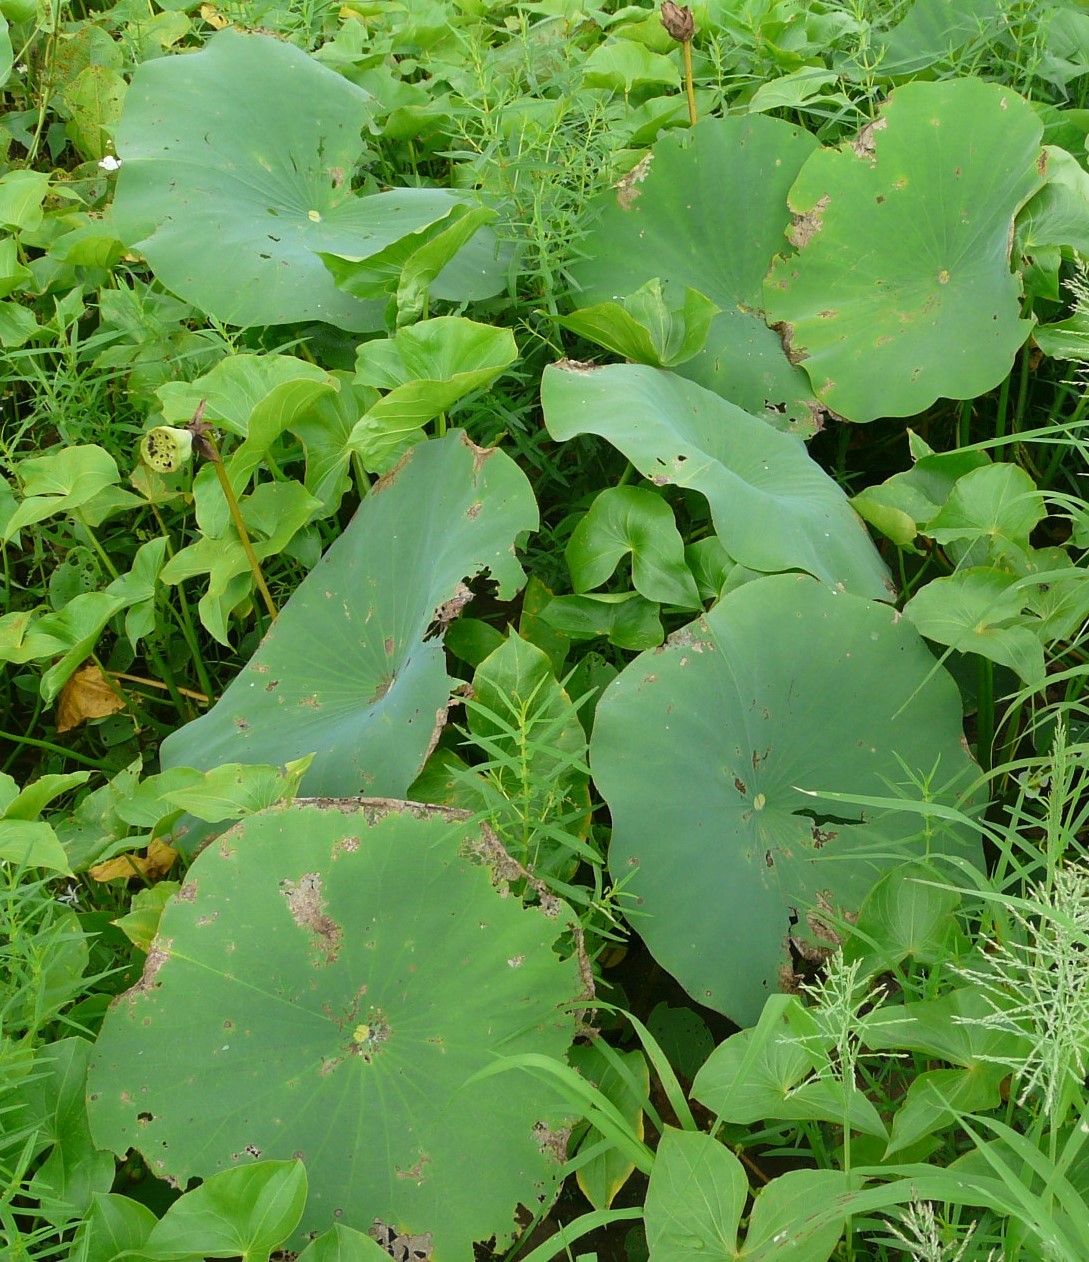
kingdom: Plantae
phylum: Tracheophyta
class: Magnoliopsida
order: Proteales
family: Nelumbonaceae
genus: Nelumbo
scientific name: Nelumbo lutea
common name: American lotus
